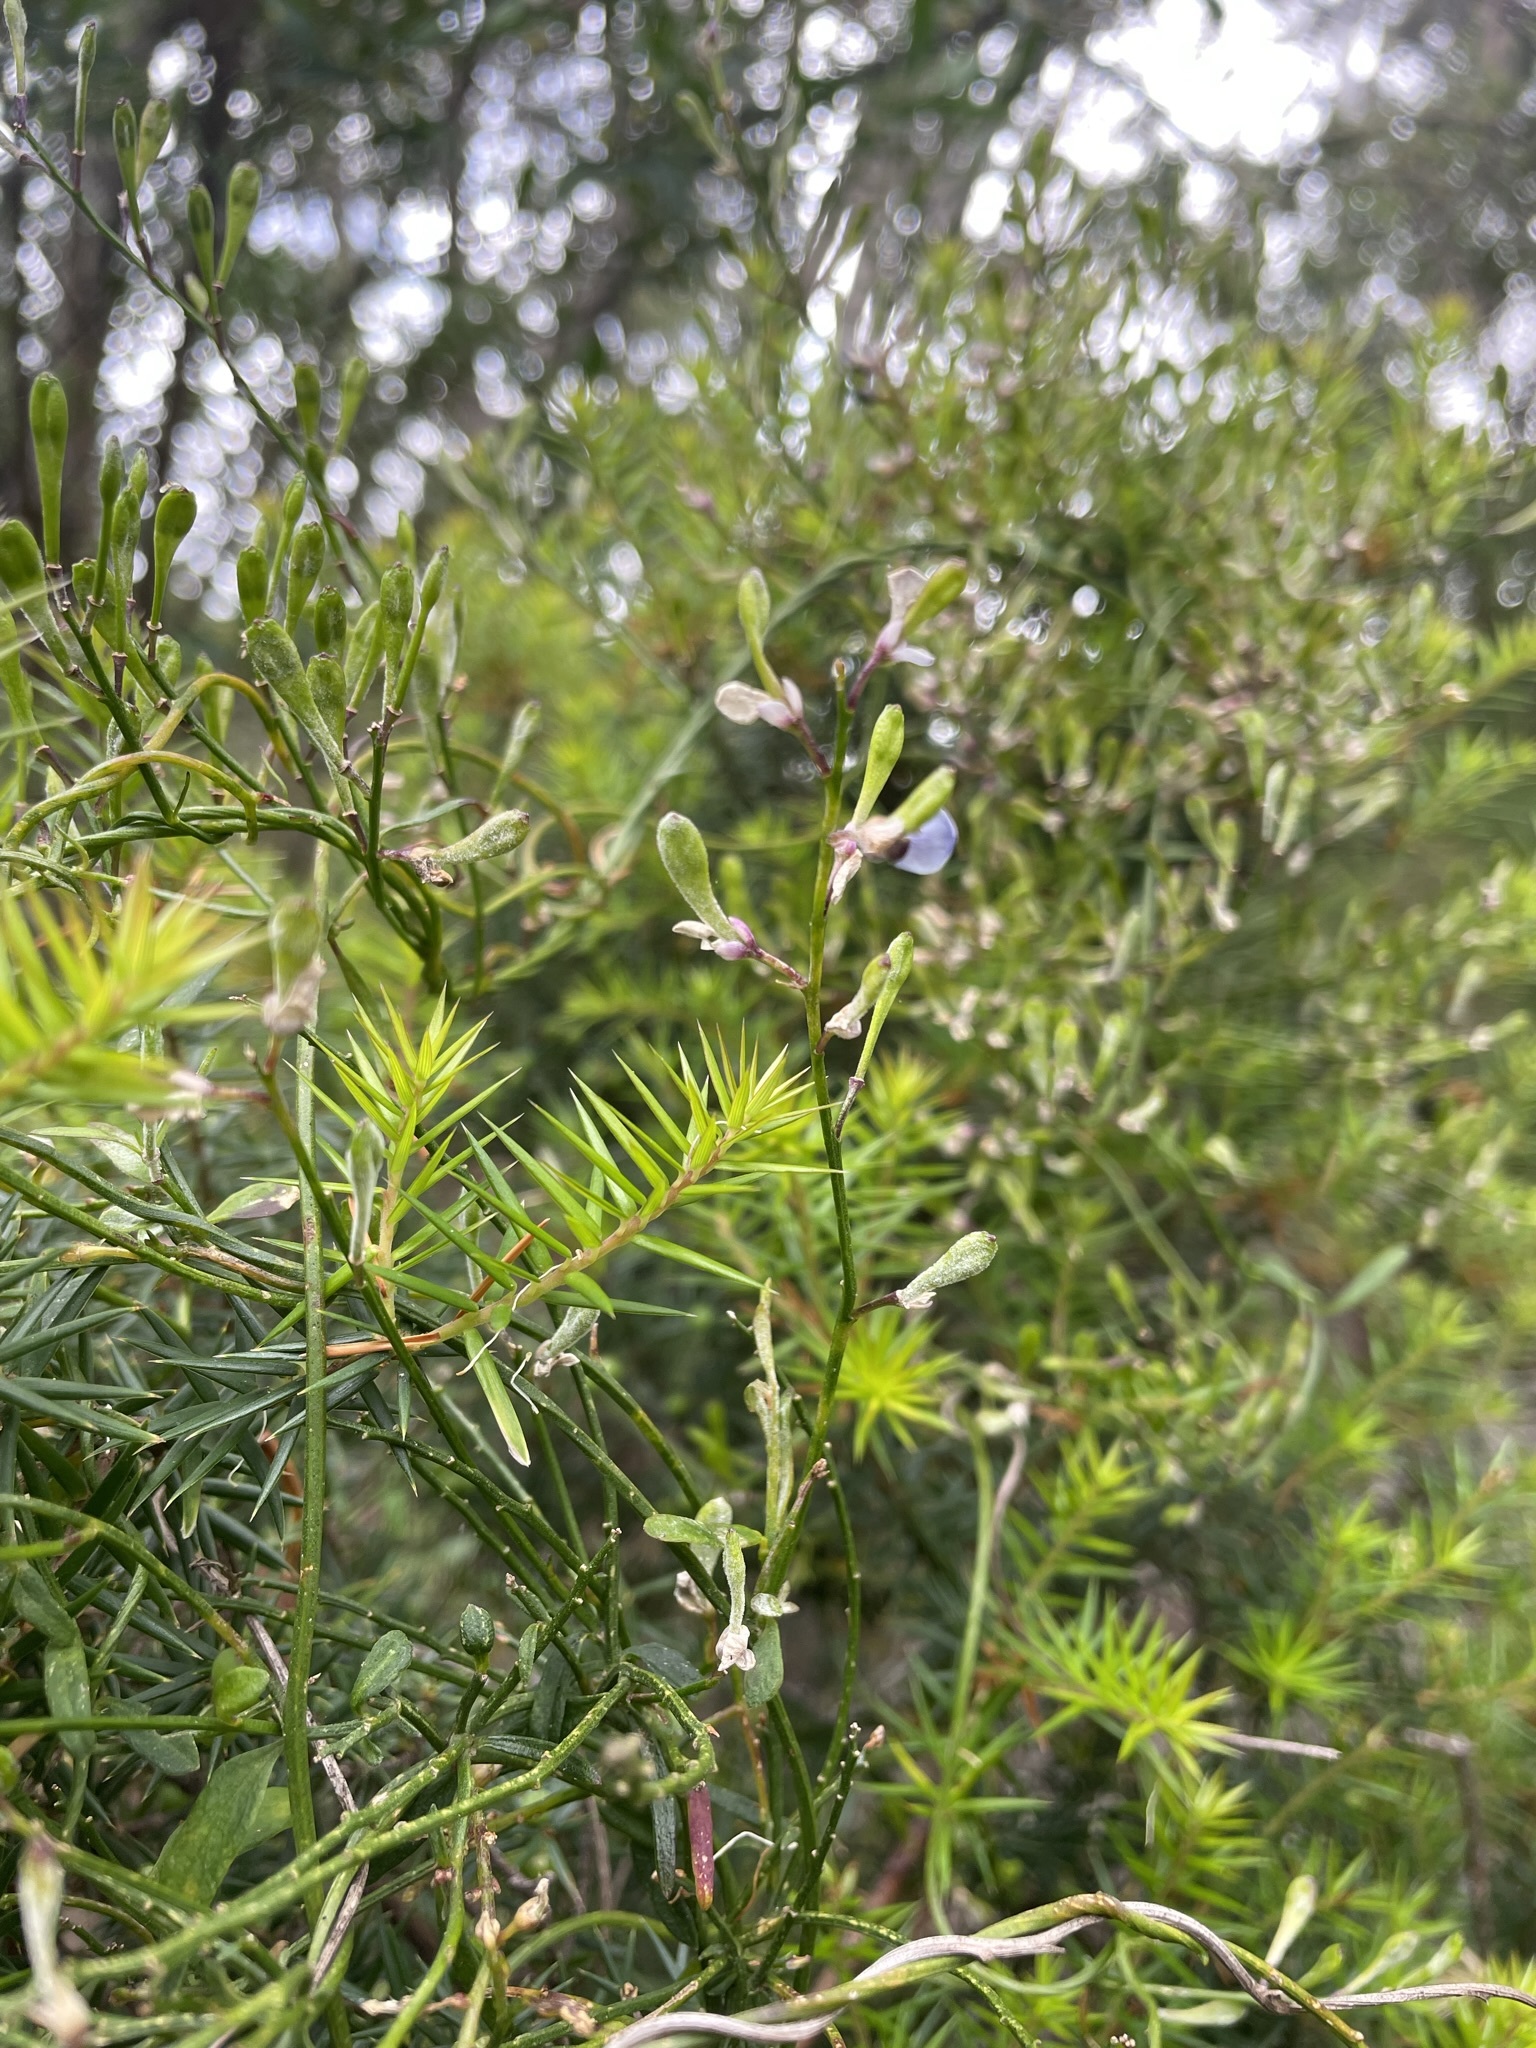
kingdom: Plantae
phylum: Tracheophyta
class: Magnoliopsida
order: Fabales
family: Polygalaceae
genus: Comesperma
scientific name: Comesperma volubile
